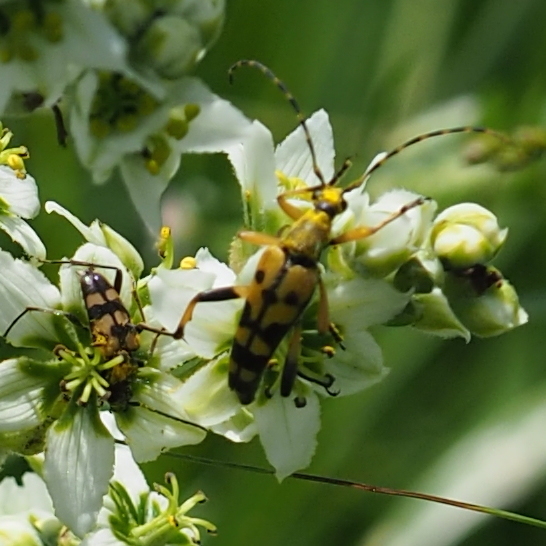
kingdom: Animalia
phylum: Arthropoda
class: Insecta
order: Coleoptera
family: Cerambycidae
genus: Rutpela
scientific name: Rutpela maculata
